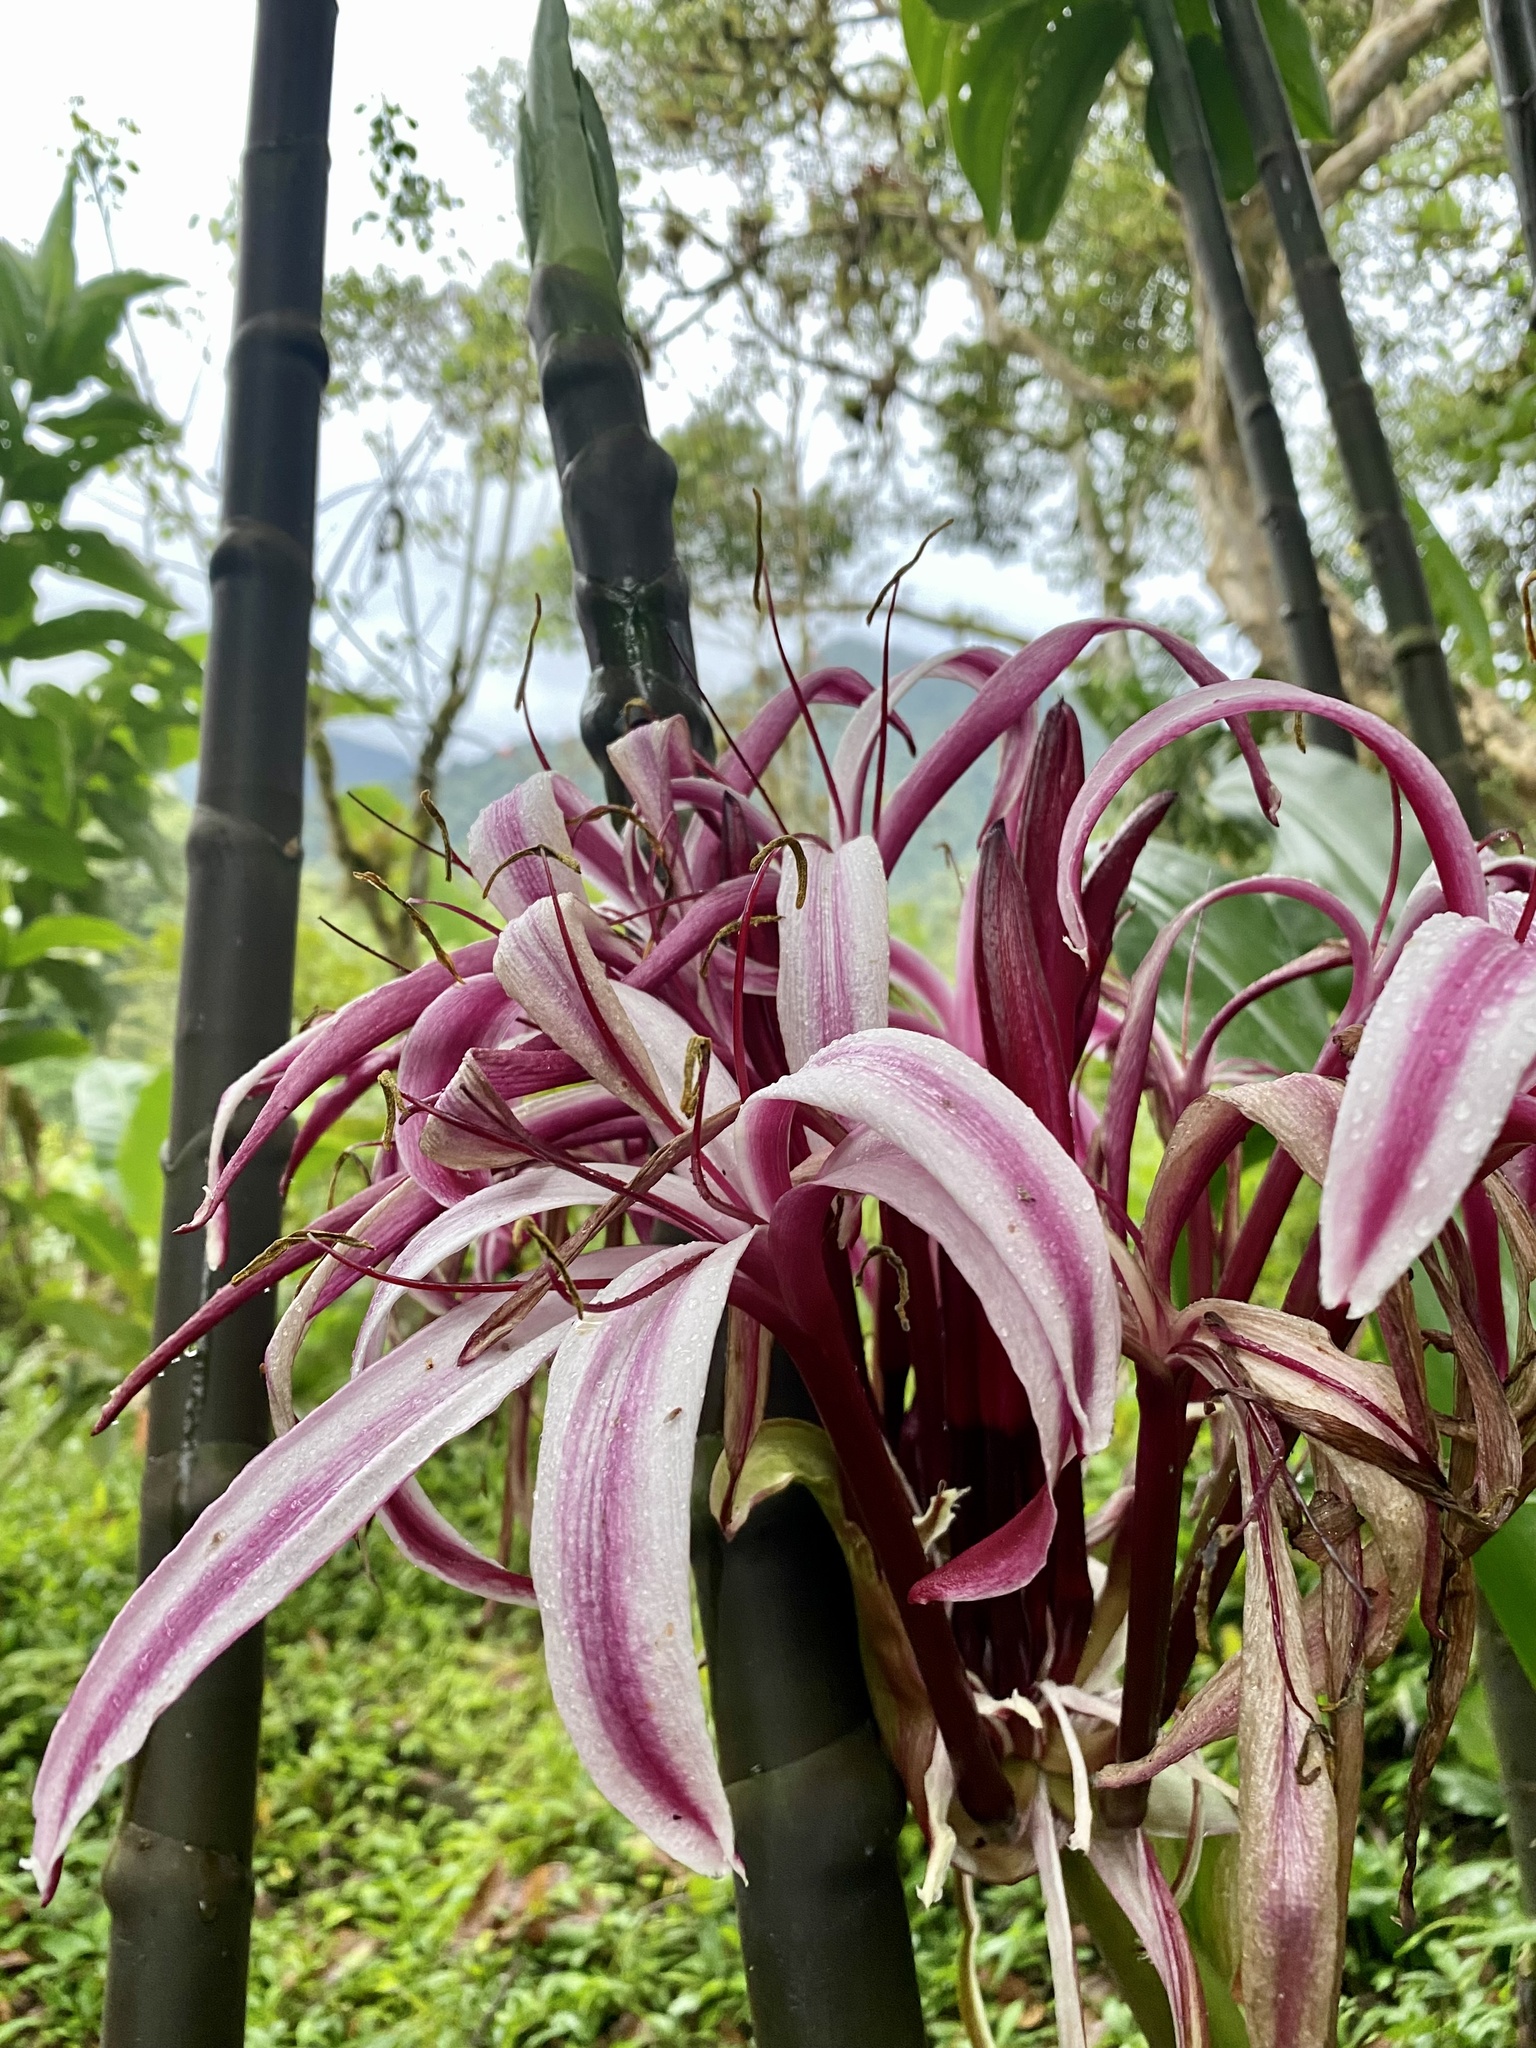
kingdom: Plantae
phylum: Tracheophyta
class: Liliopsida
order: Asparagales
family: Amaryllidaceae
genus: Crinum
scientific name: Crinum amabile
